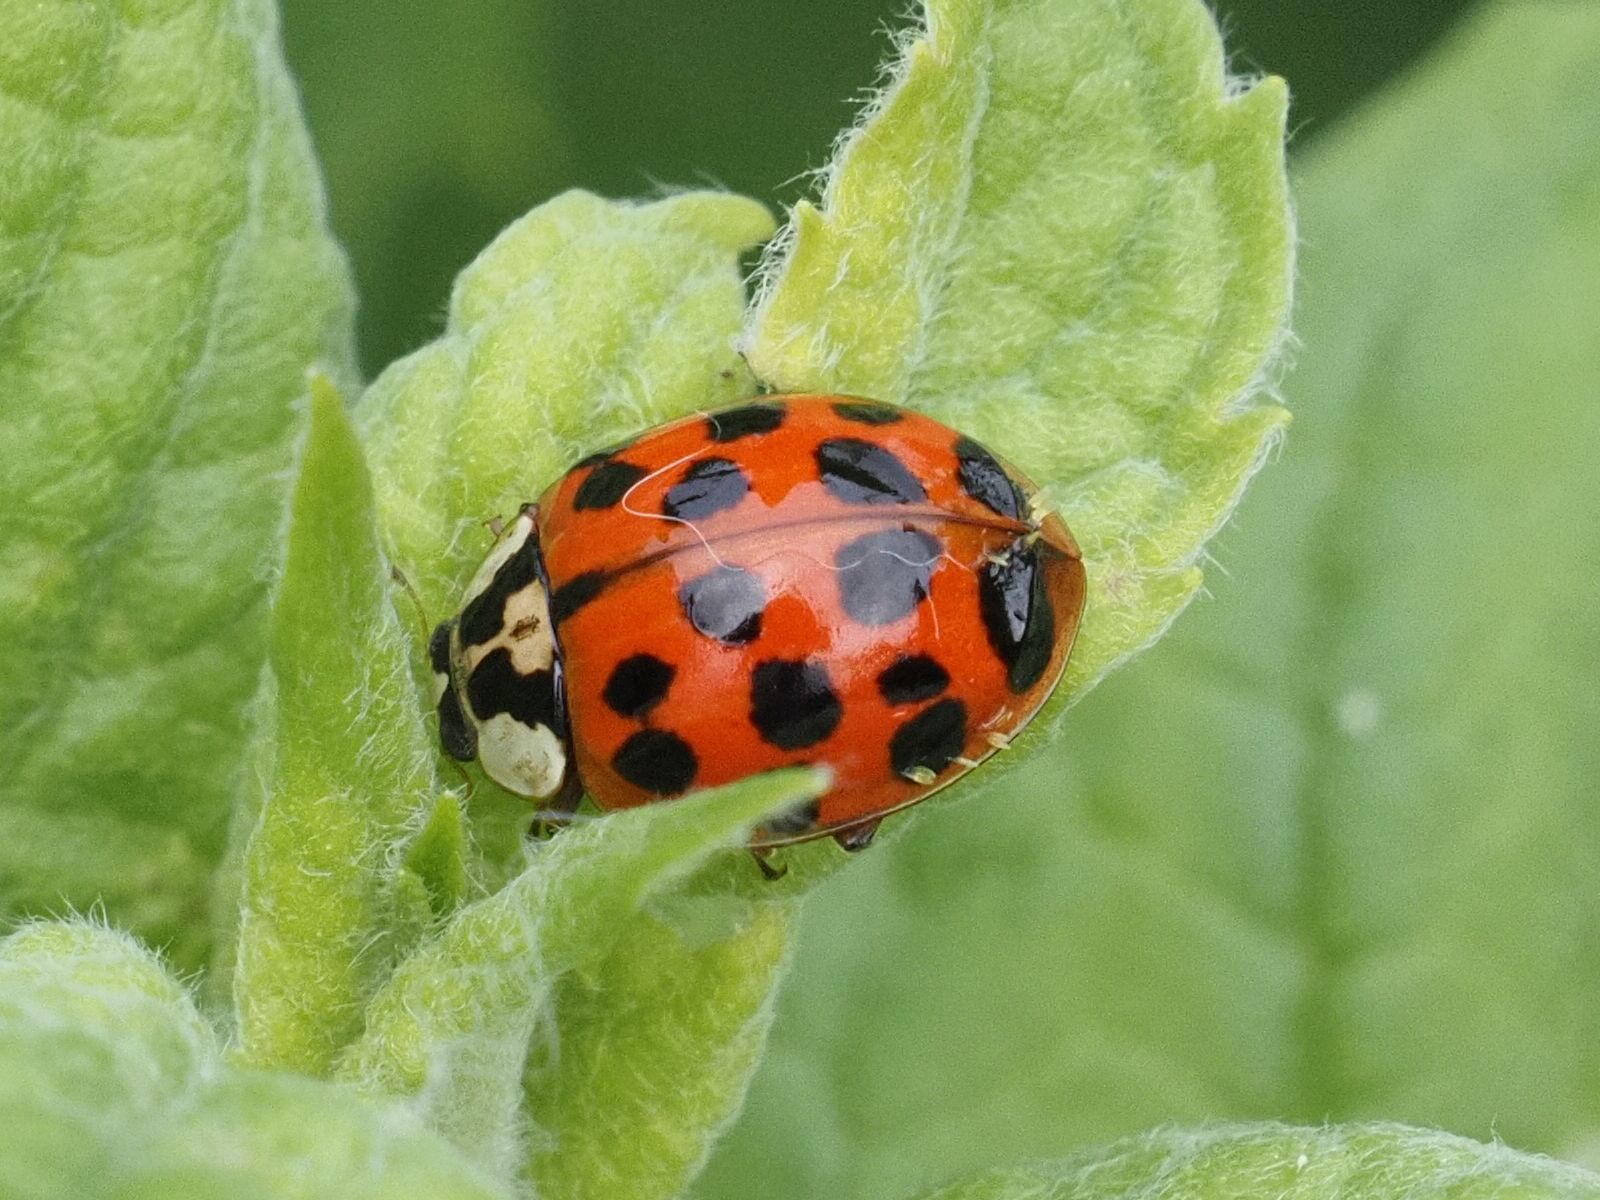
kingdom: Animalia
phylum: Arthropoda
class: Insecta
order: Coleoptera
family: Coccinellidae
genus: Harmonia
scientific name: Harmonia axyridis
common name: Harlequin ladybird
